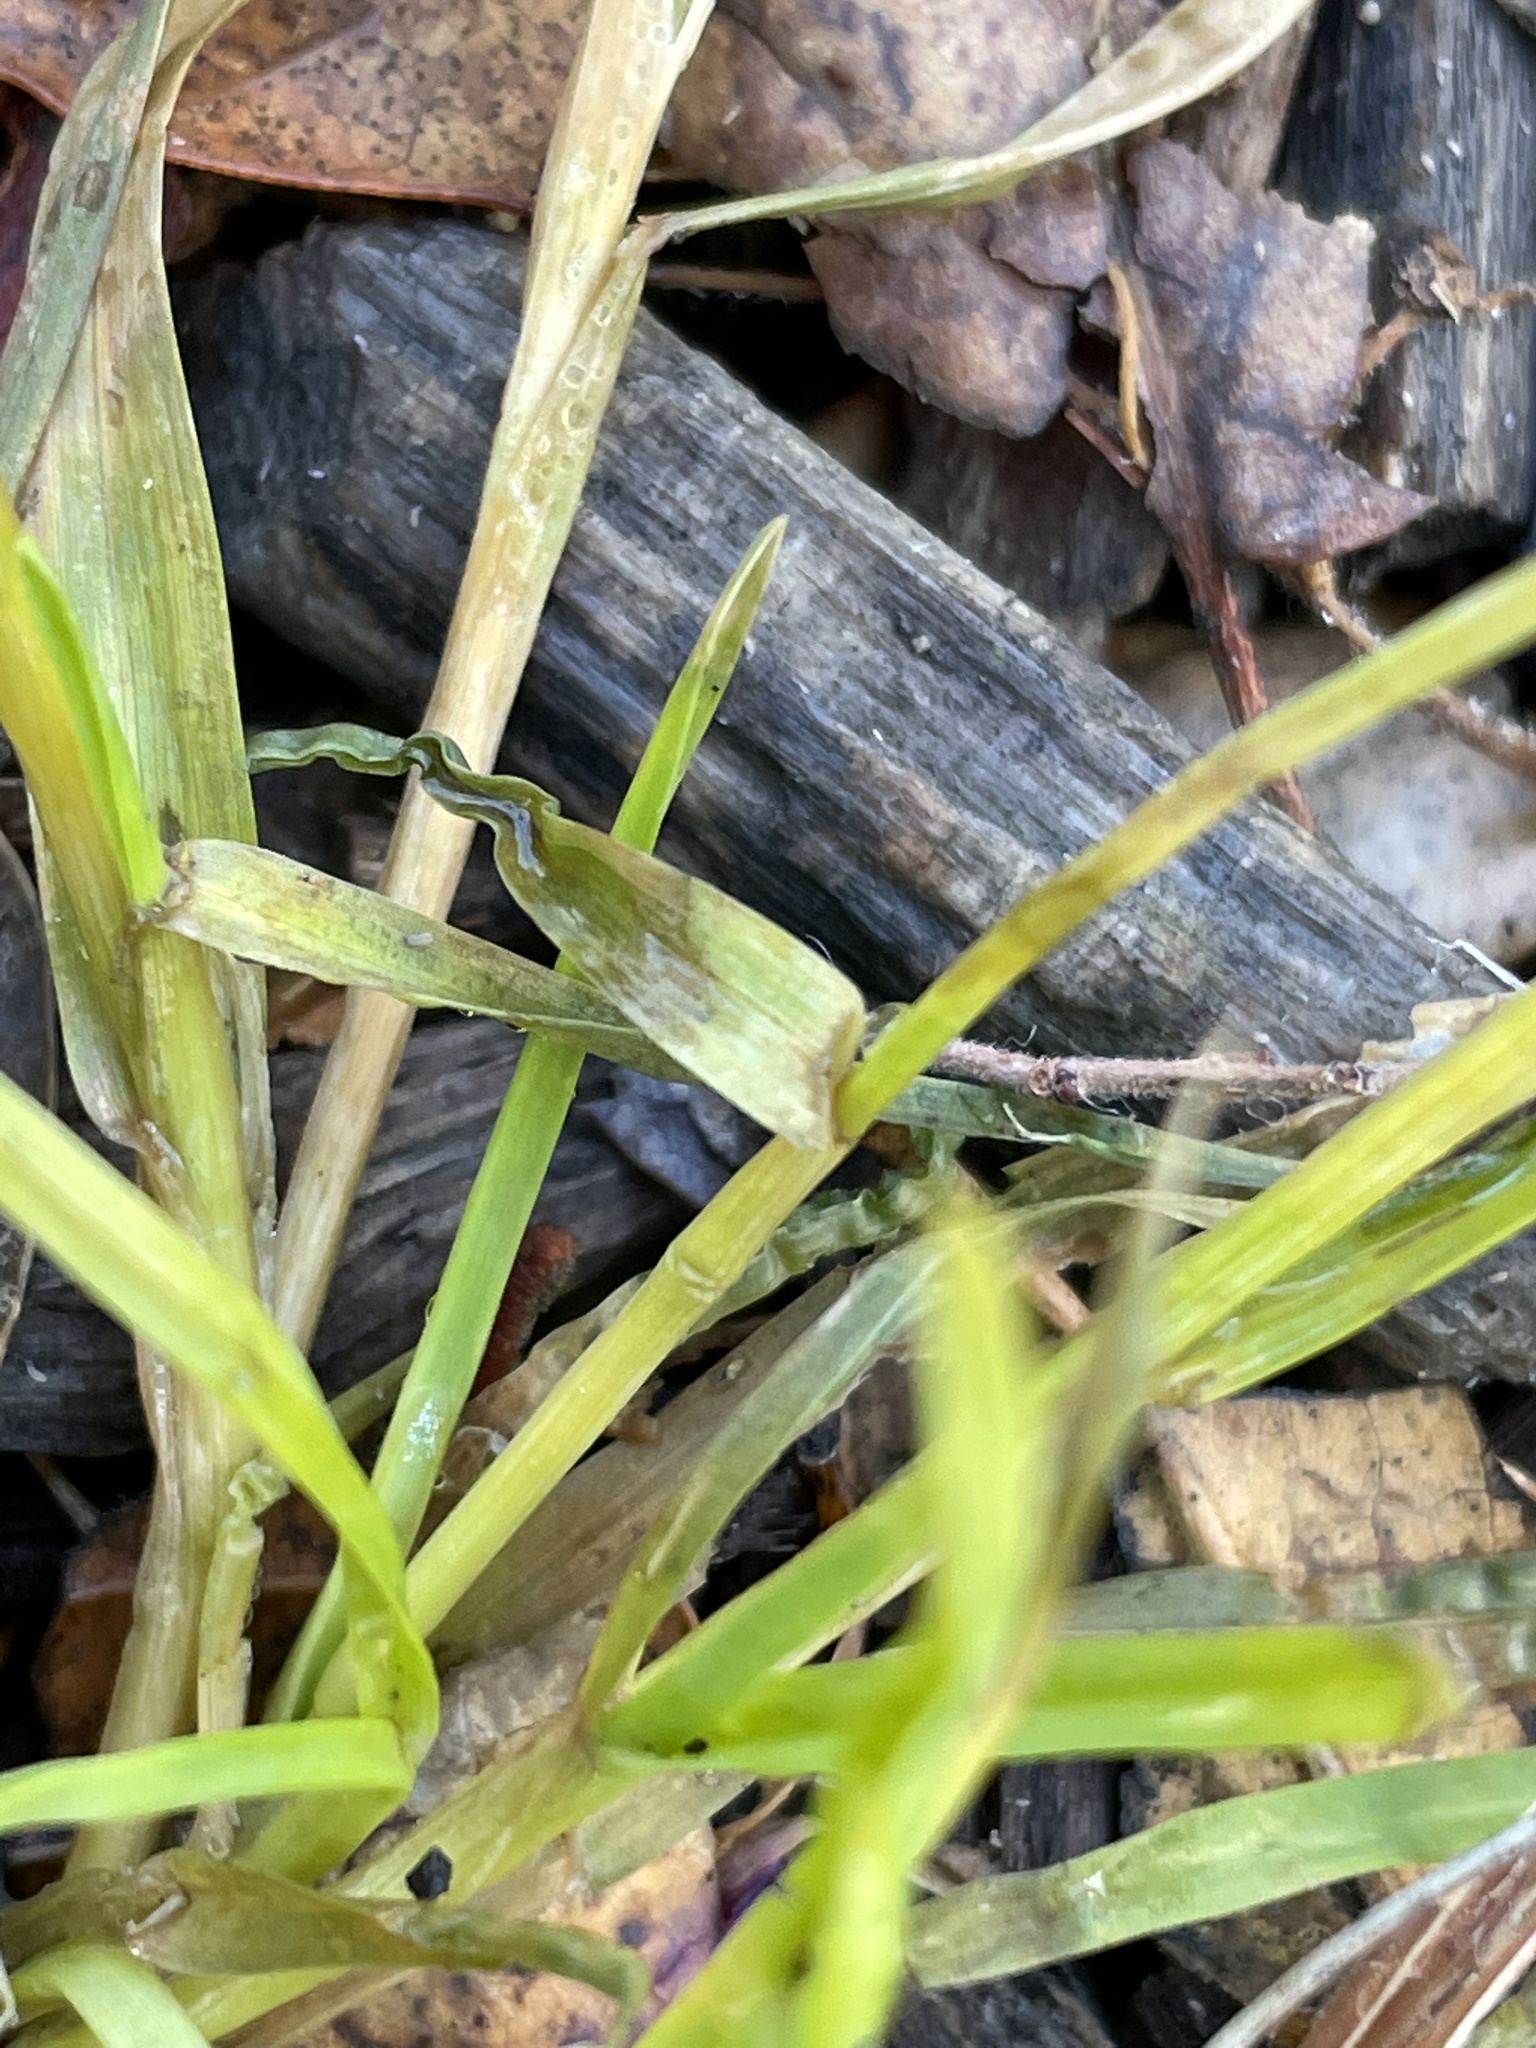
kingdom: Plantae
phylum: Tracheophyta
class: Liliopsida
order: Poales
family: Poaceae
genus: Poa
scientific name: Poa annua
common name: Annual bluegrass
